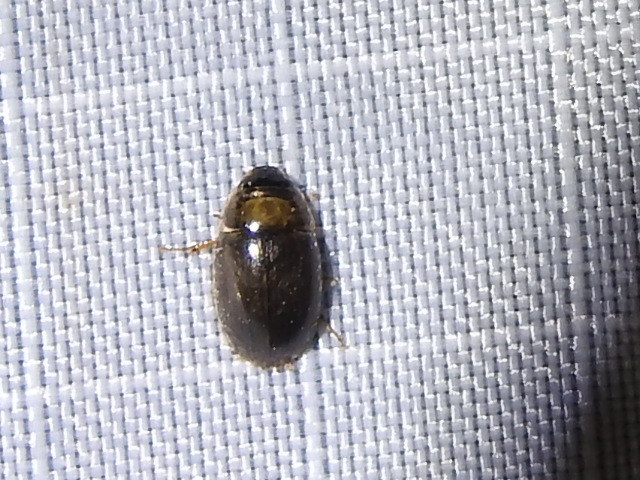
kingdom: Animalia
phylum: Arthropoda
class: Insecta
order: Coleoptera
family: Hydrophilidae
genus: Enochrus
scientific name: Enochrus
